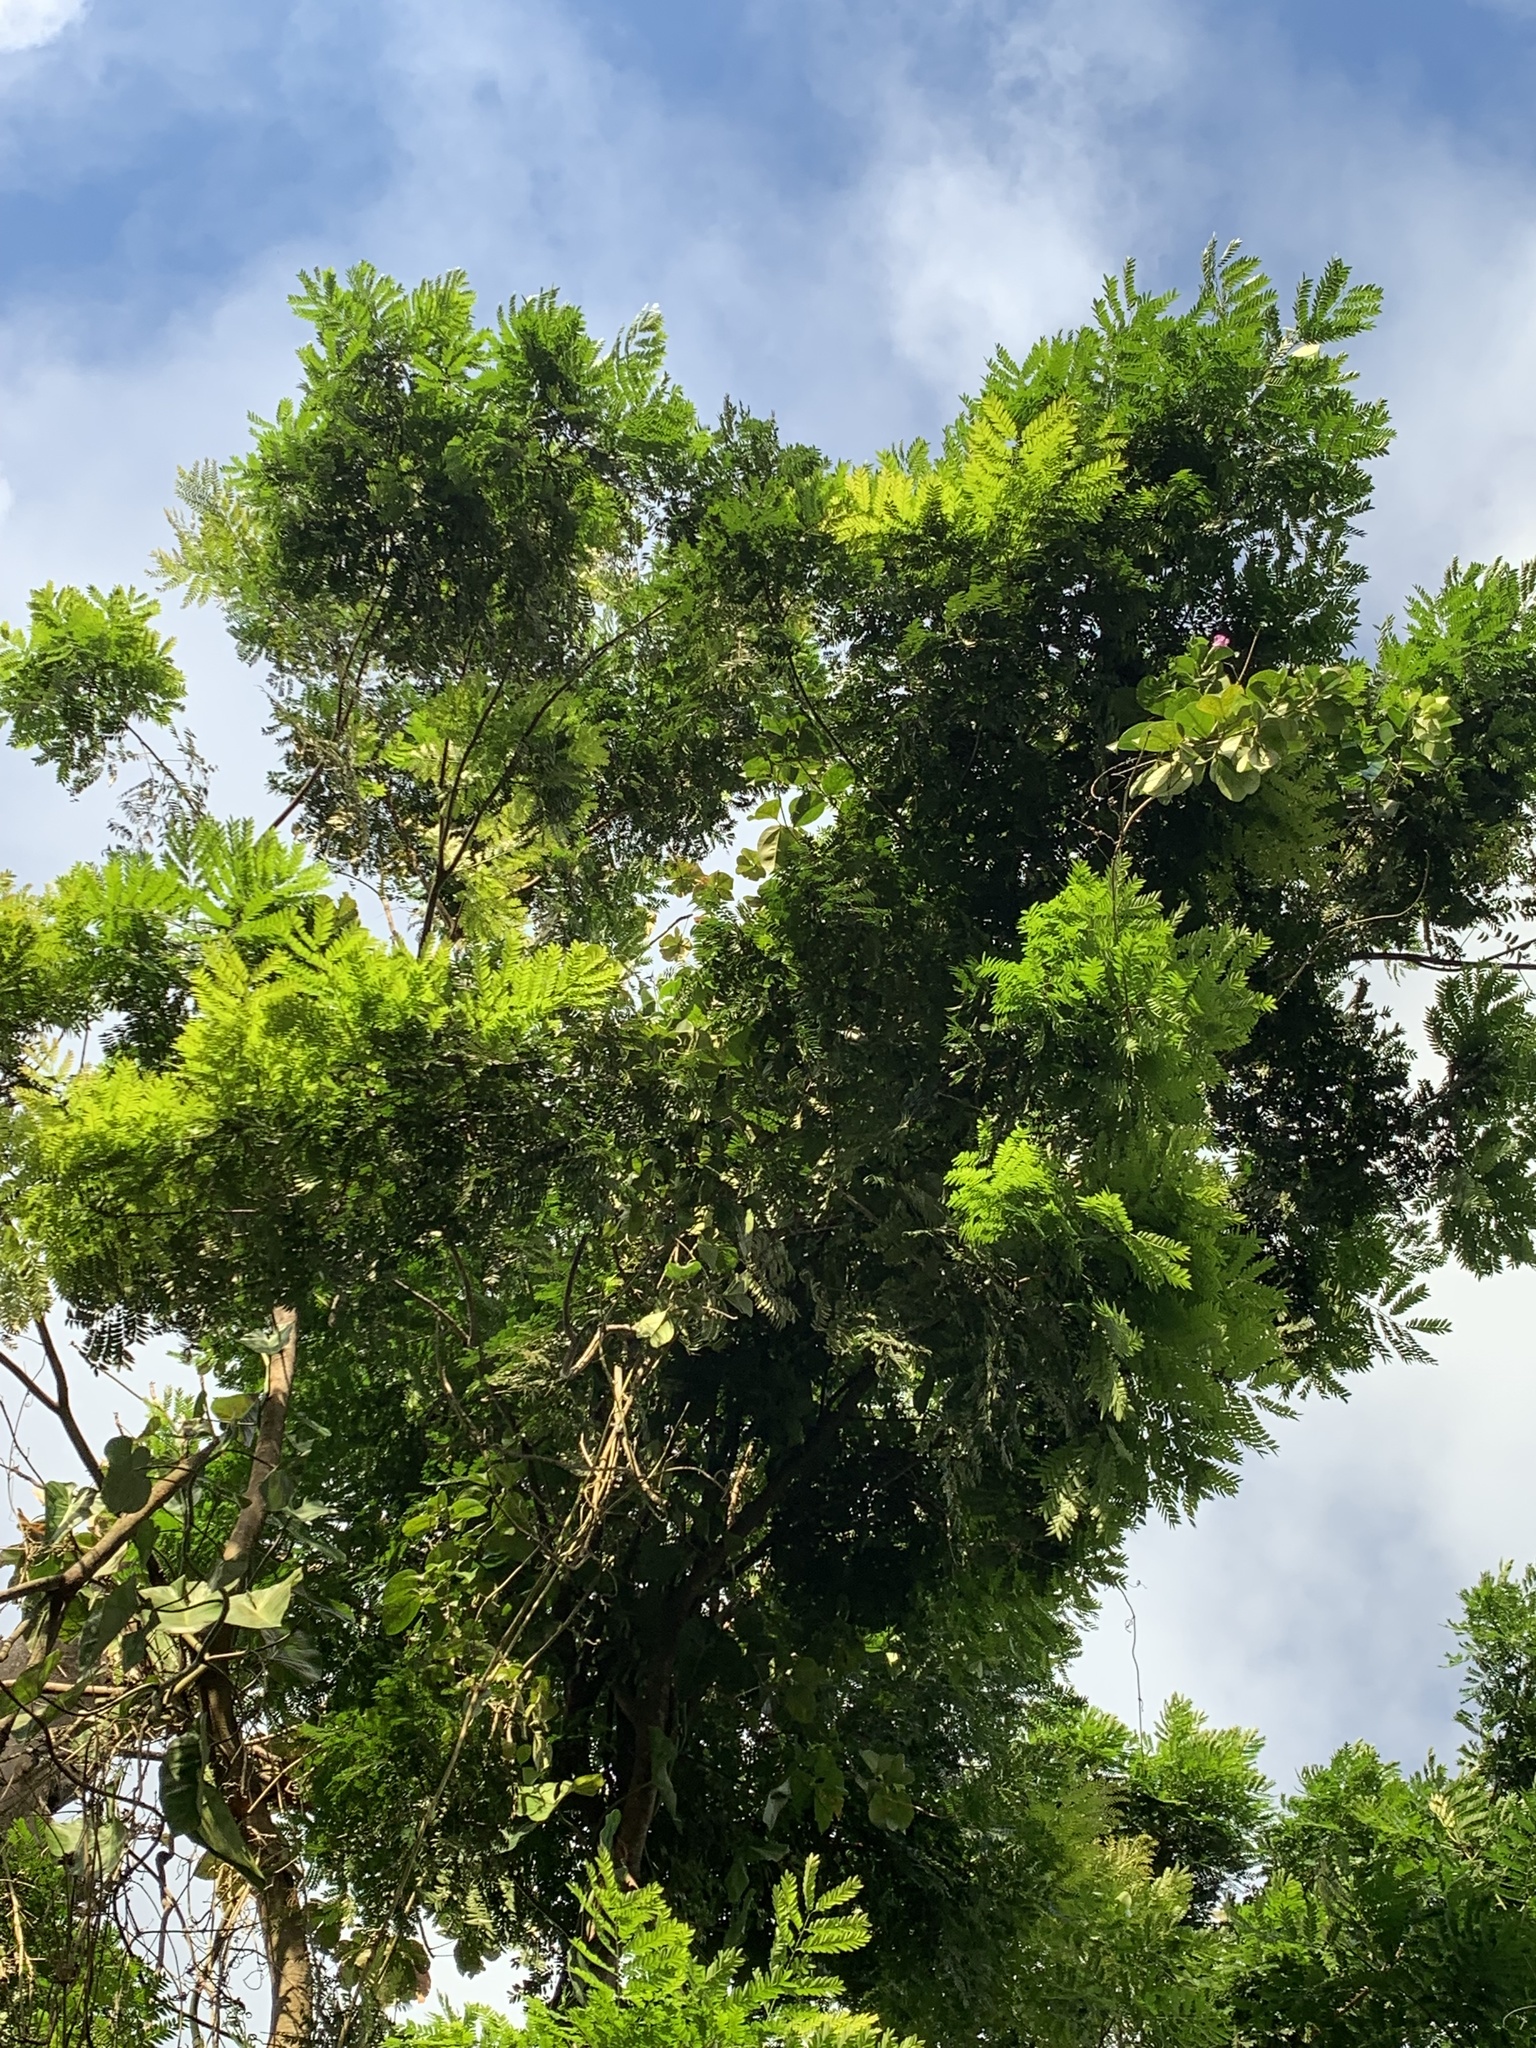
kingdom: Plantae
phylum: Tracheophyta
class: Magnoliopsida
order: Sapindales
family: Sapindaceae
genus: Dilodendron
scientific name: Dilodendron costaricense
